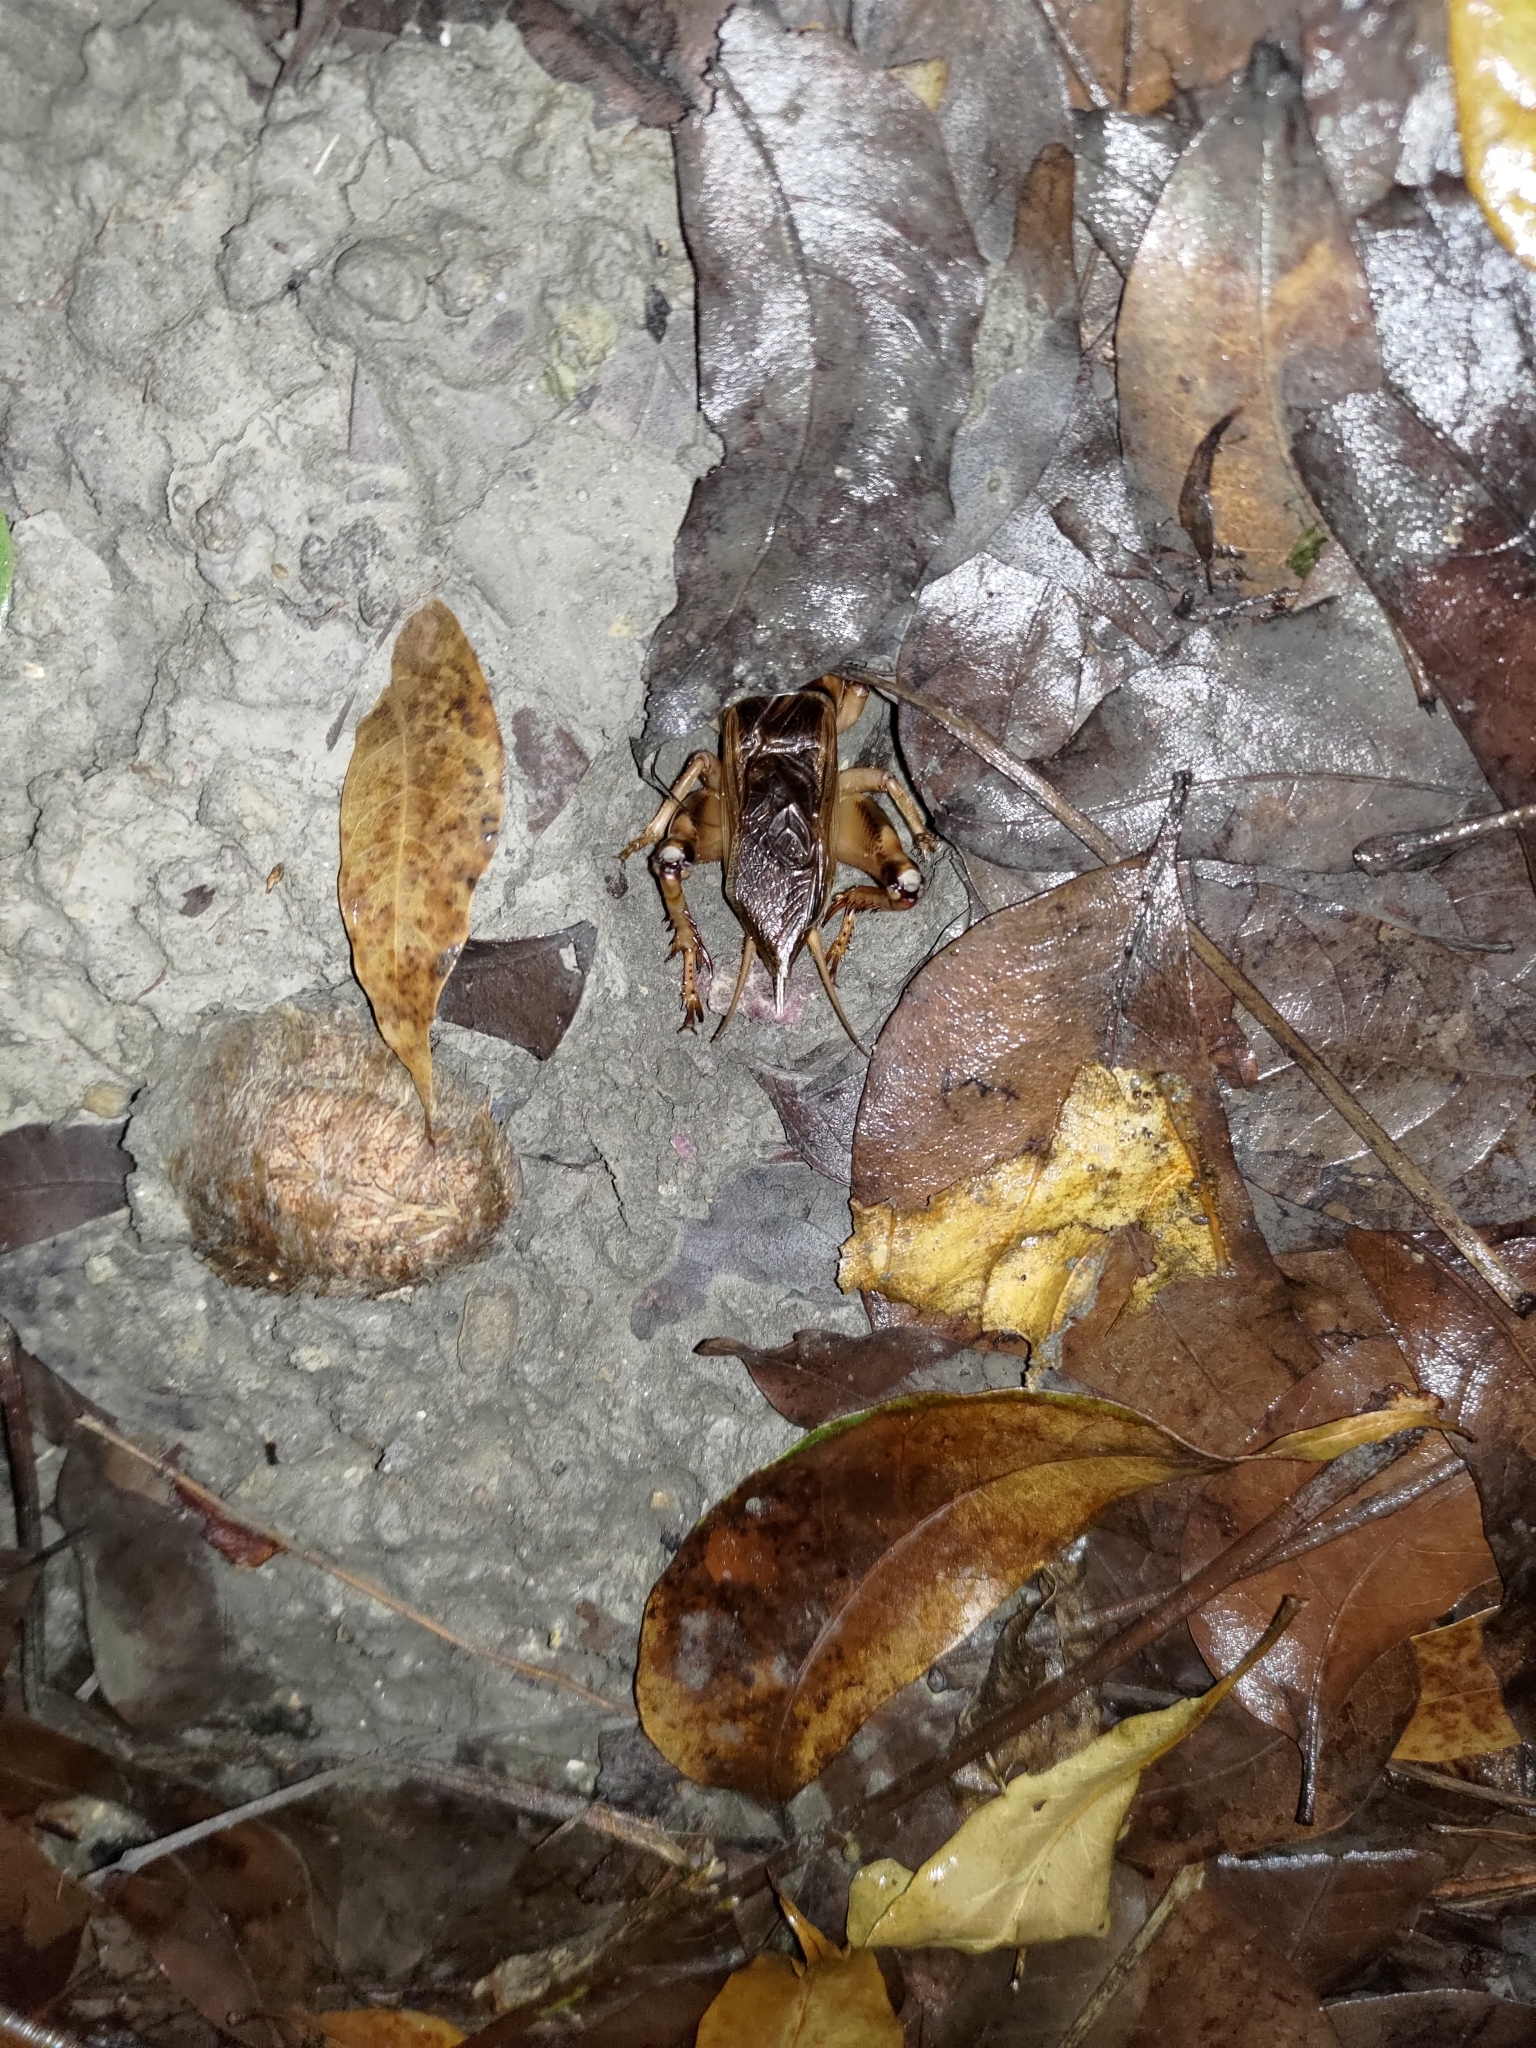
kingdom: Animalia
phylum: Arthropoda
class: Insecta
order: Orthoptera
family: Gryllidae
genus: Tarbinskiellus
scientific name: Tarbinskiellus portentosus
